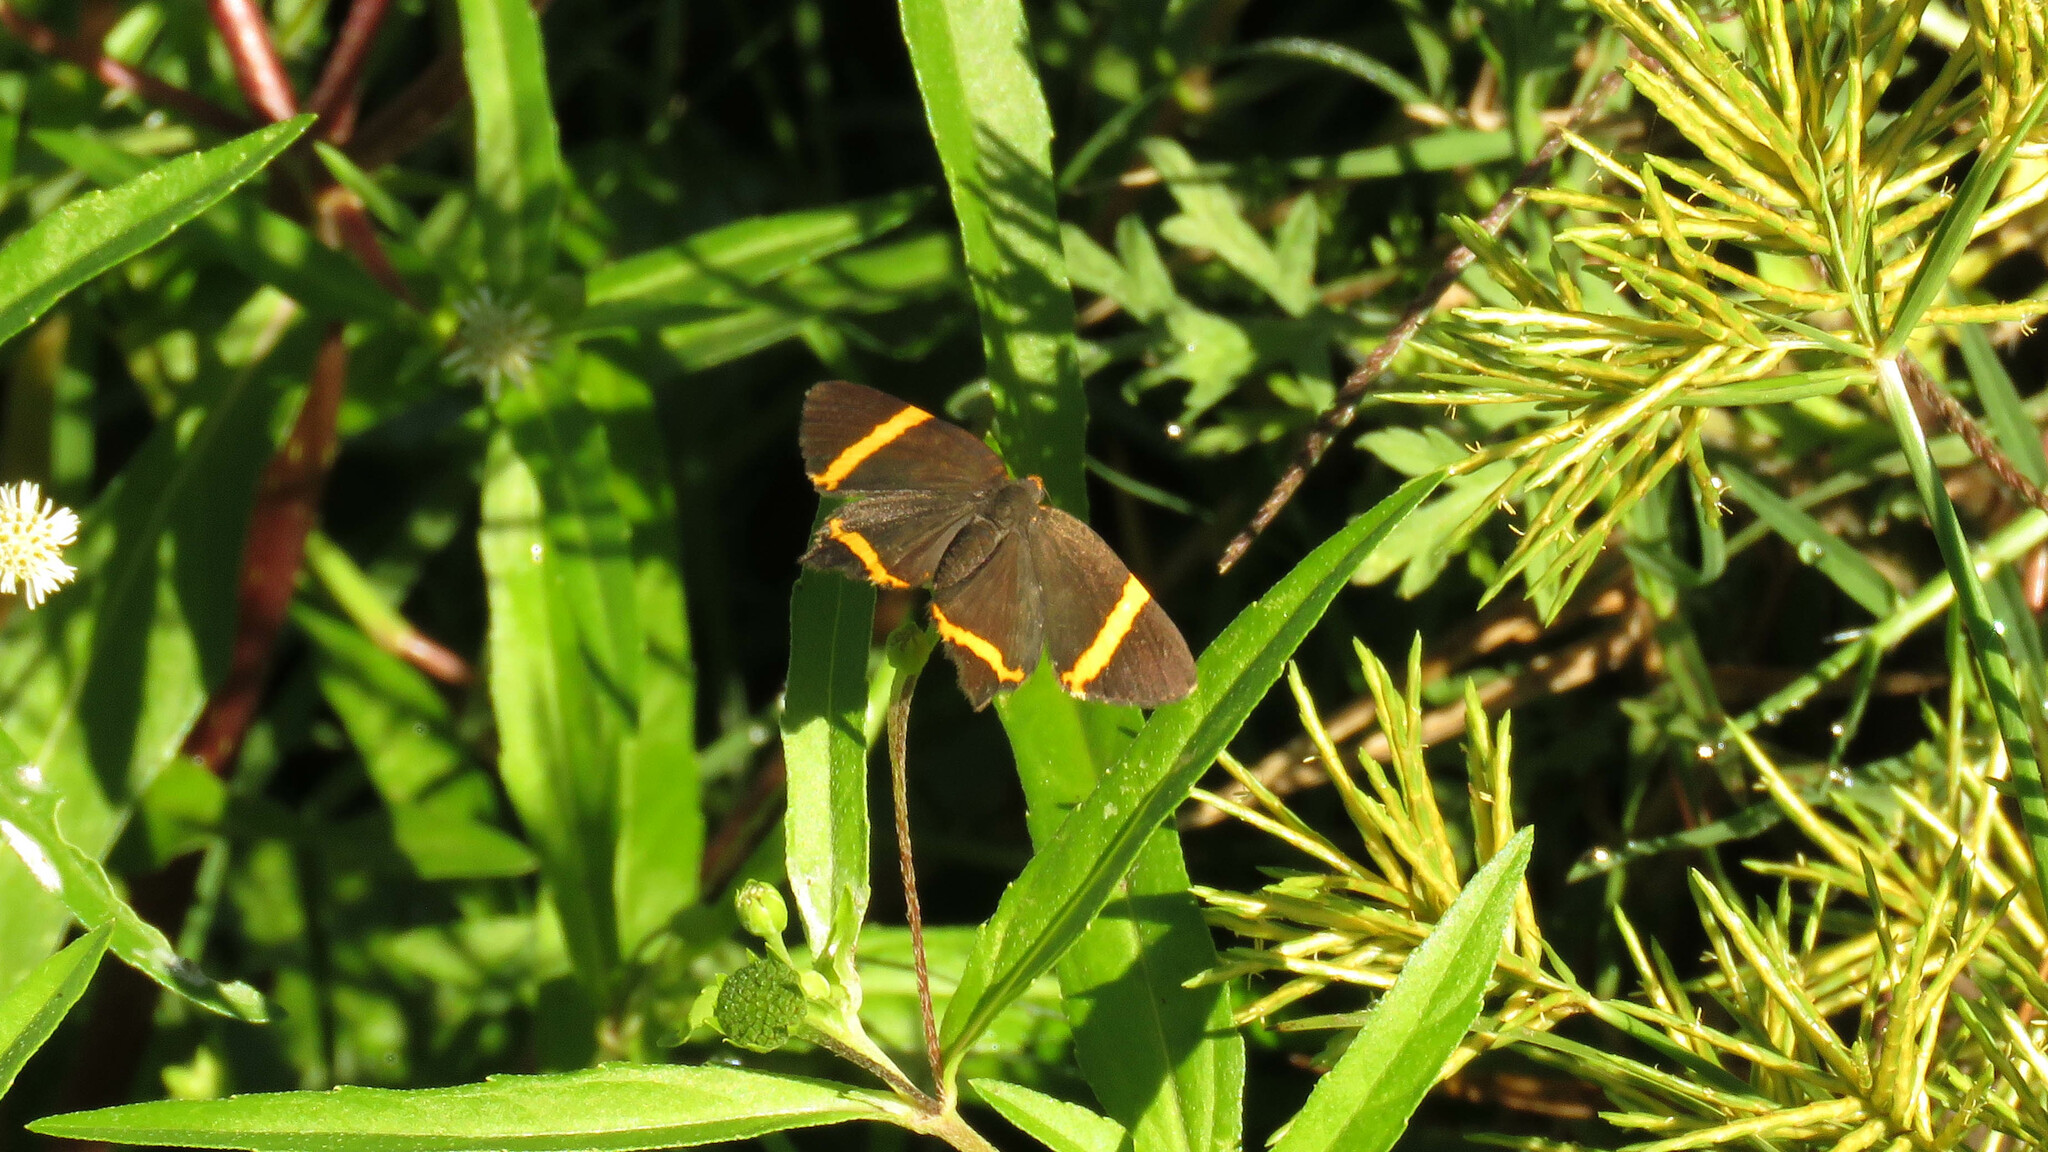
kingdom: Animalia
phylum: Arthropoda
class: Insecta
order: Lepidoptera
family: Riodinidae
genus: Riodina
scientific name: Riodina lysippoides
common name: Little dancer metalmark
